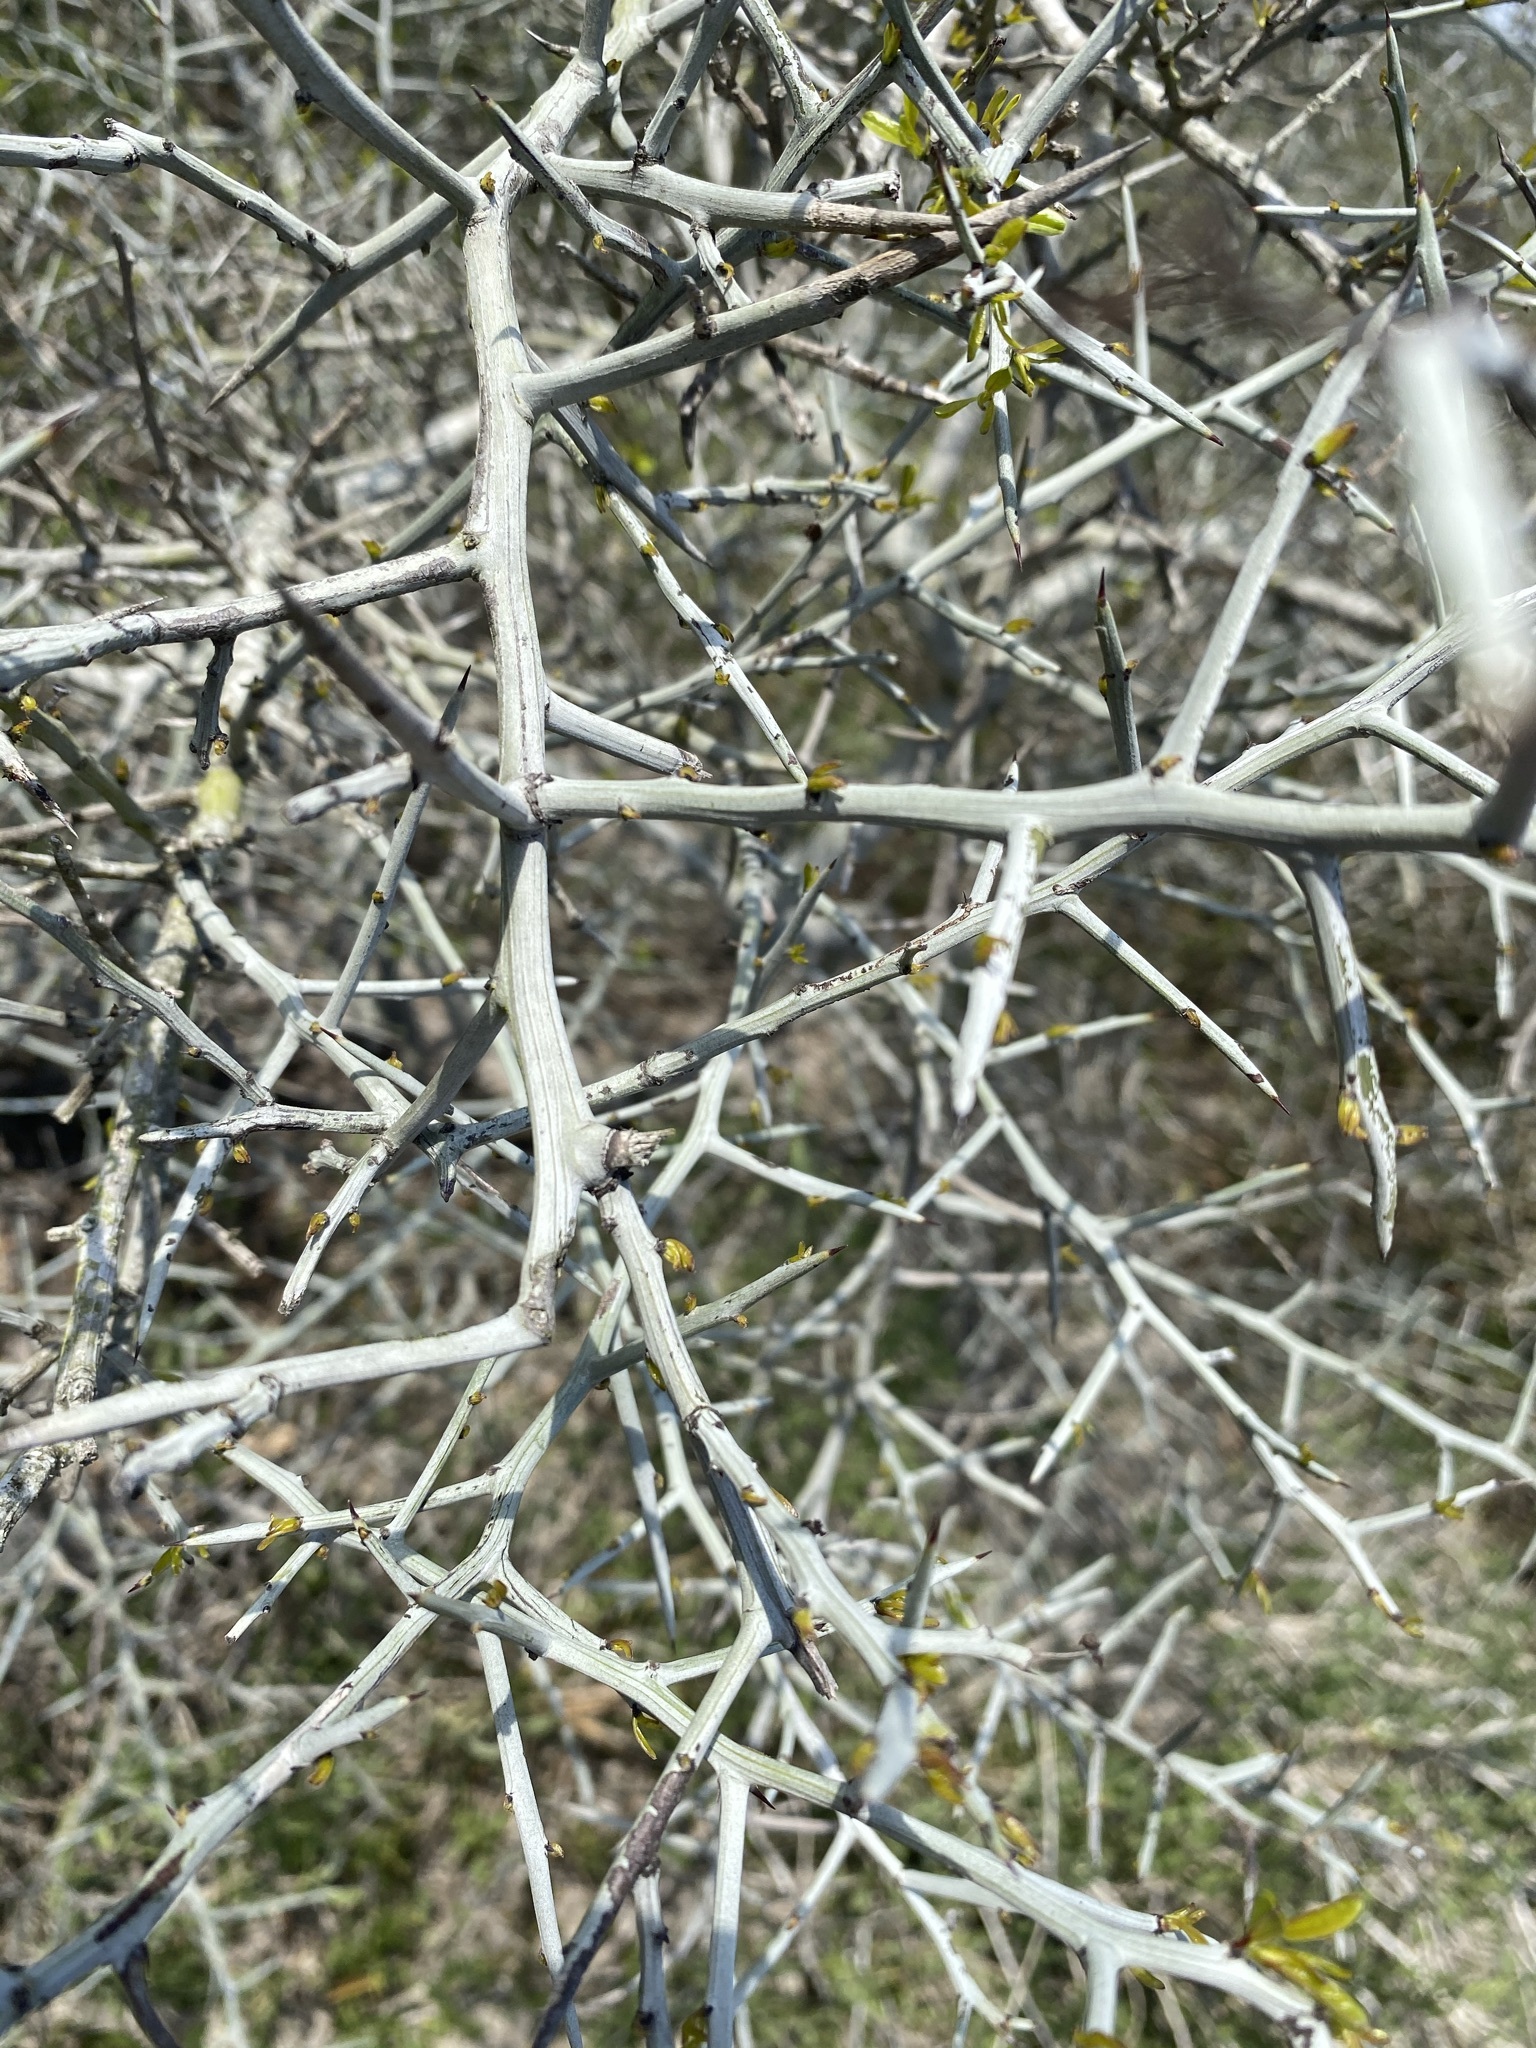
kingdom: Plantae
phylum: Tracheophyta
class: Magnoliopsida
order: Rosales
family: Rhamnaceae
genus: Sarcomphalus
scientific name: Sarcomphalus obtusifolius
